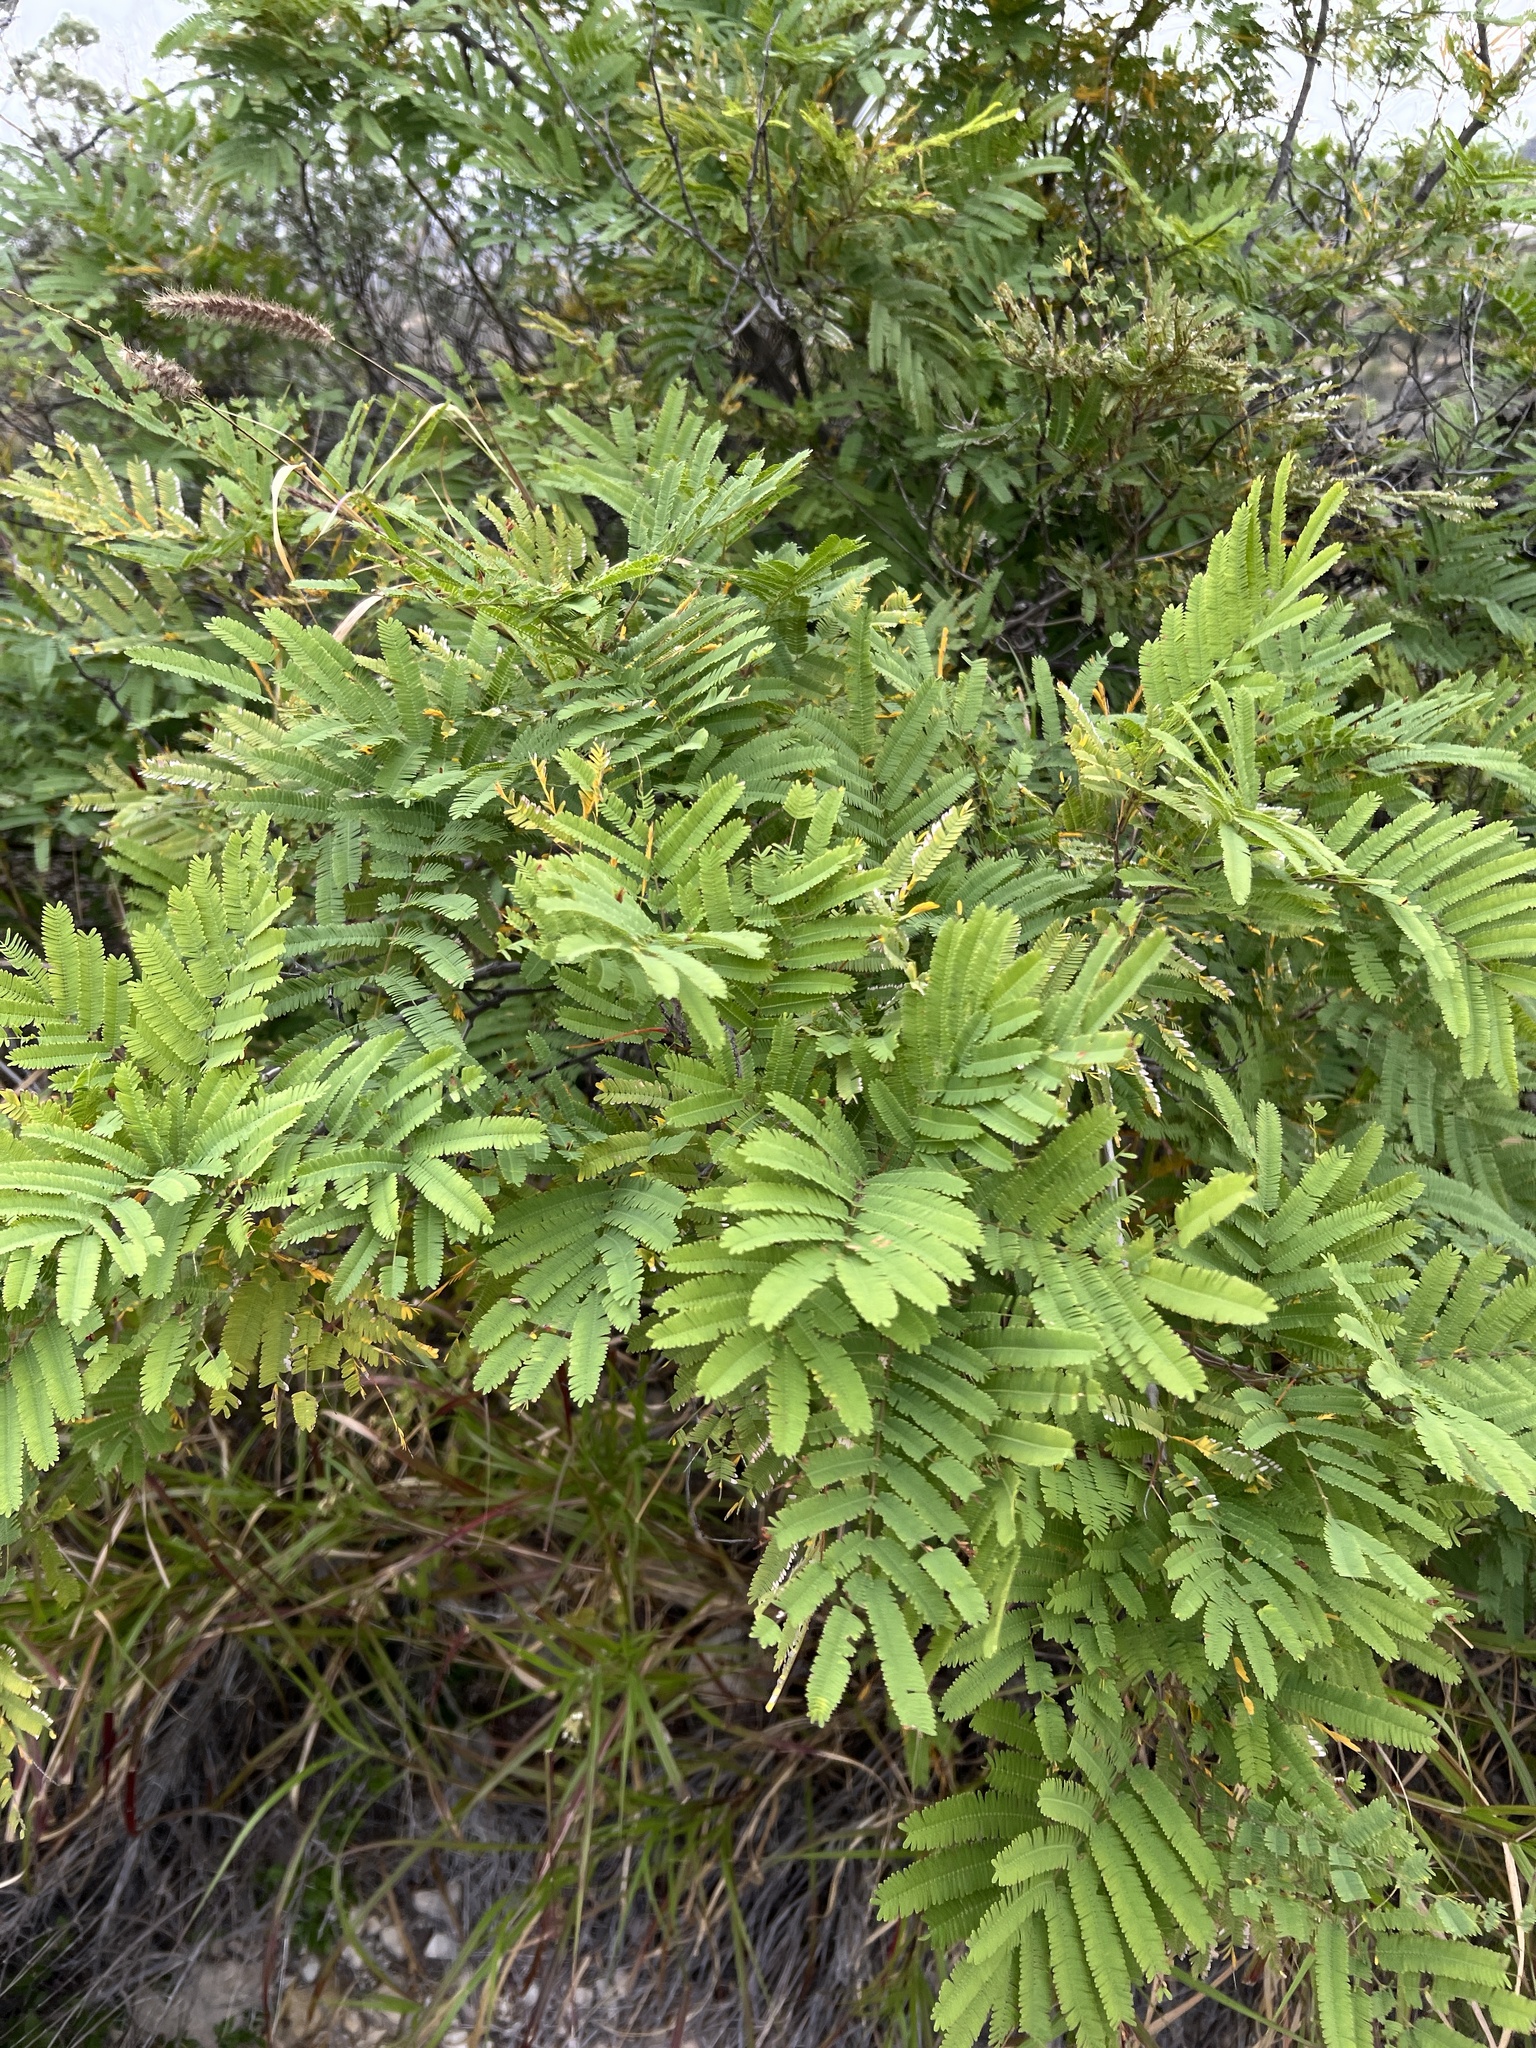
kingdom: Plantae
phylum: Tracheophyta
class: Magnoliopsida
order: Fabales
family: Fabaceae
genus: Senegalia
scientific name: Senegalia berlandieri
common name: Berlandier acacia
